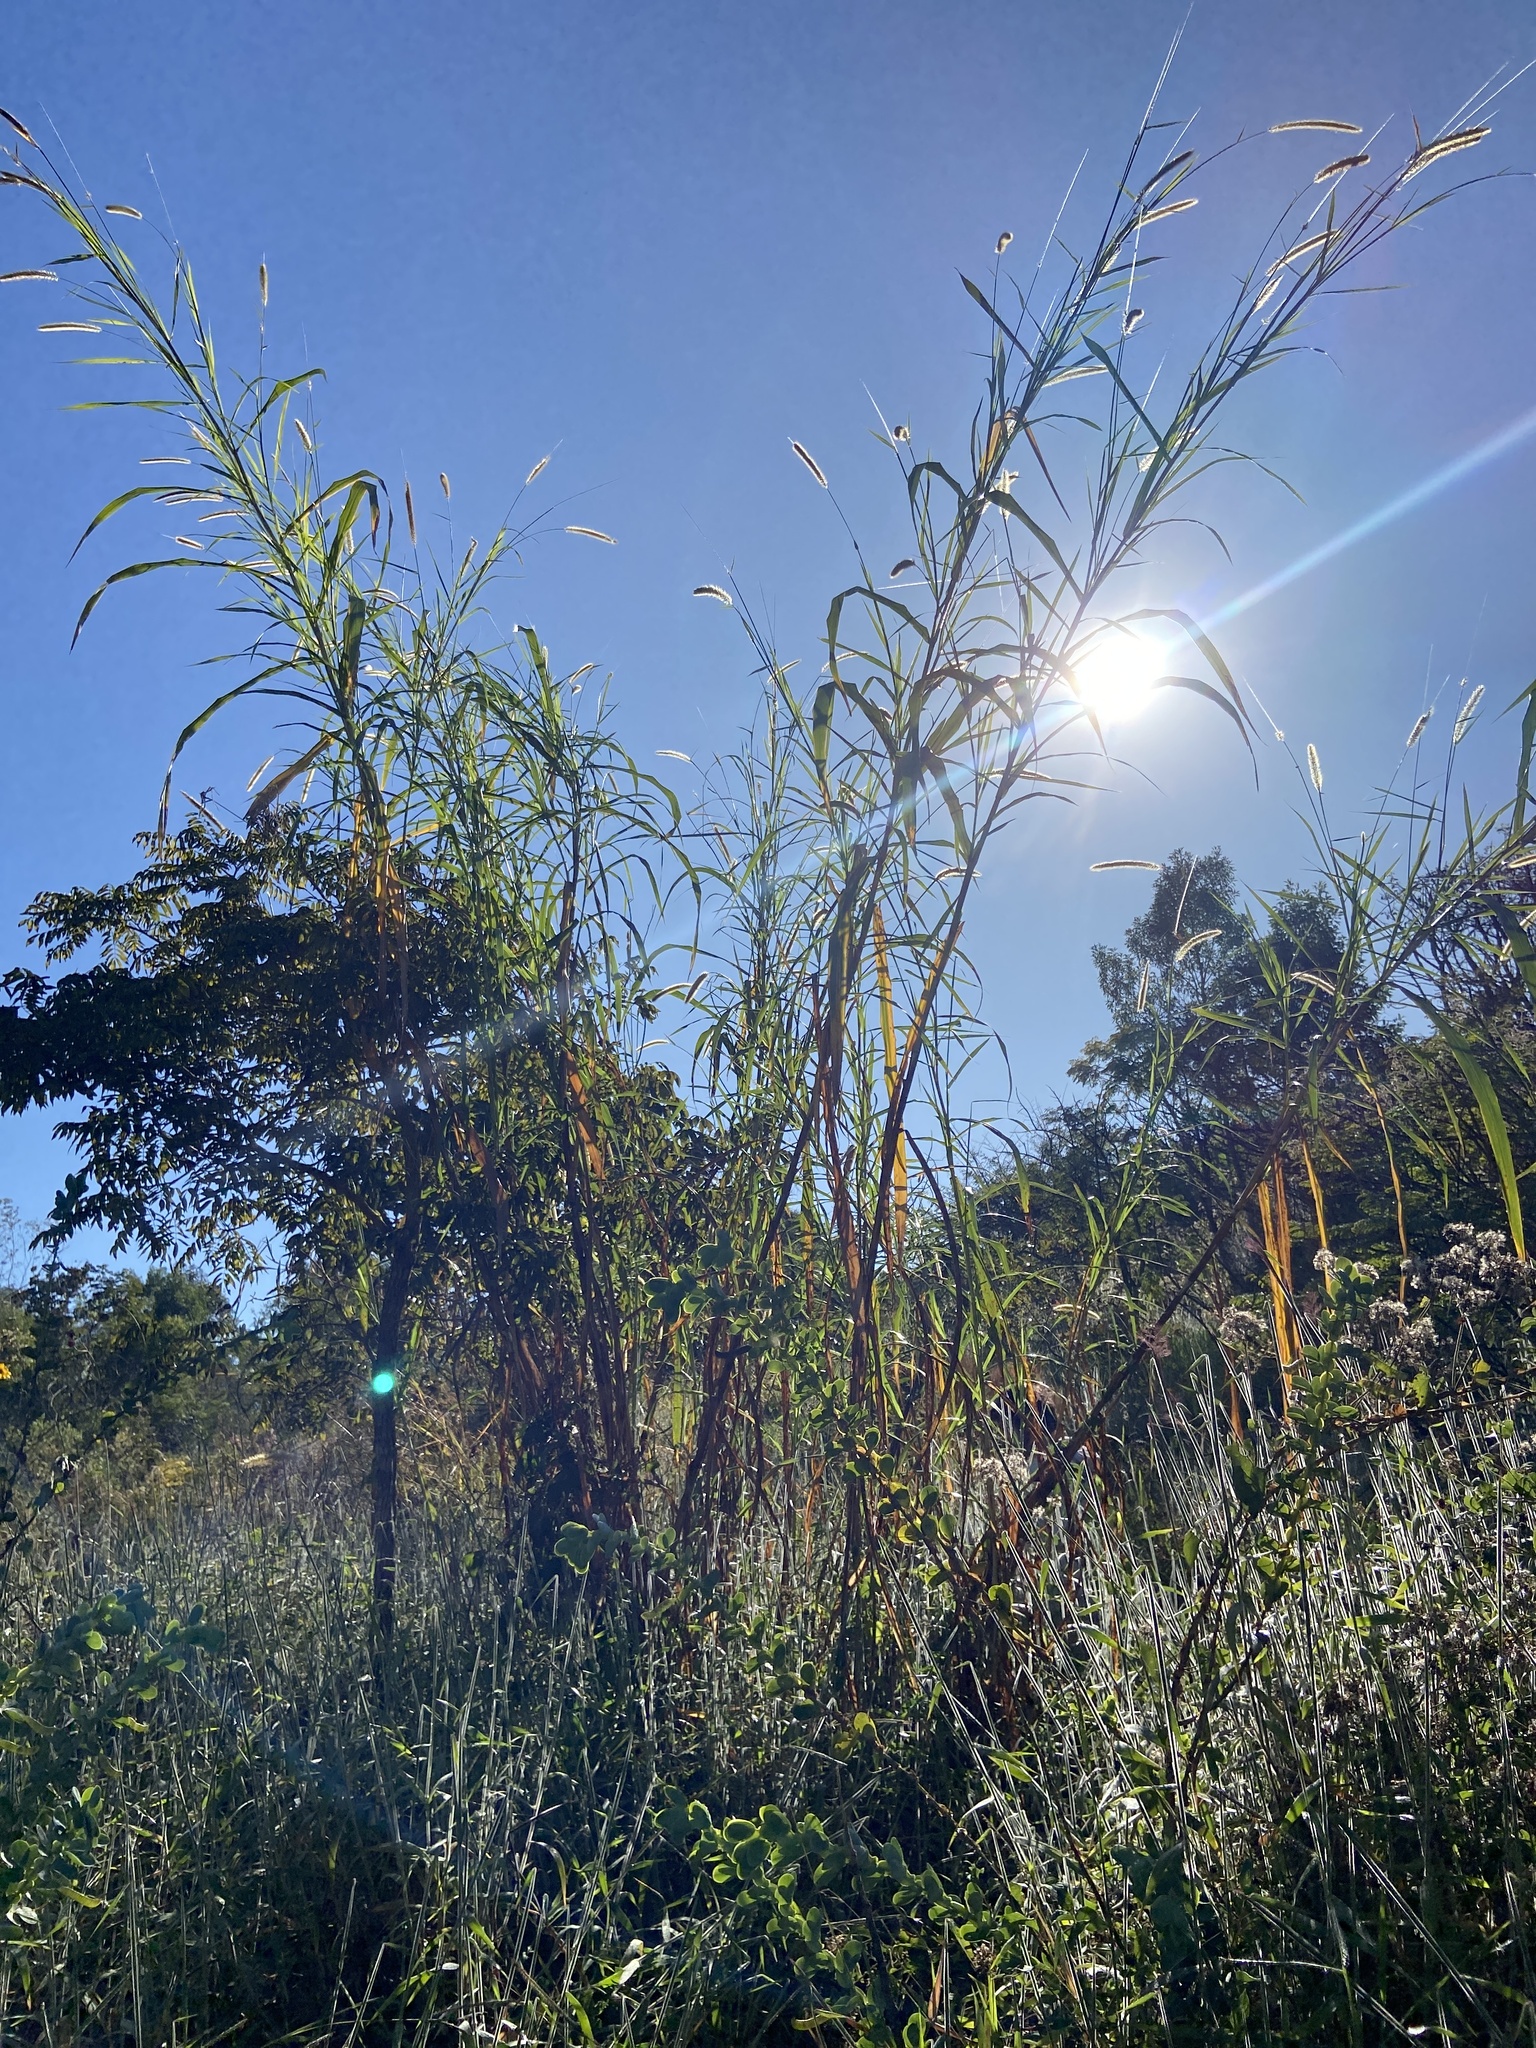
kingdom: Plantae
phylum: Tracheophyta
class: Liliopsida
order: Poales
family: Poaceae
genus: Cenchrus
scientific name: Cenchrus purpureus
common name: Elephant grass
